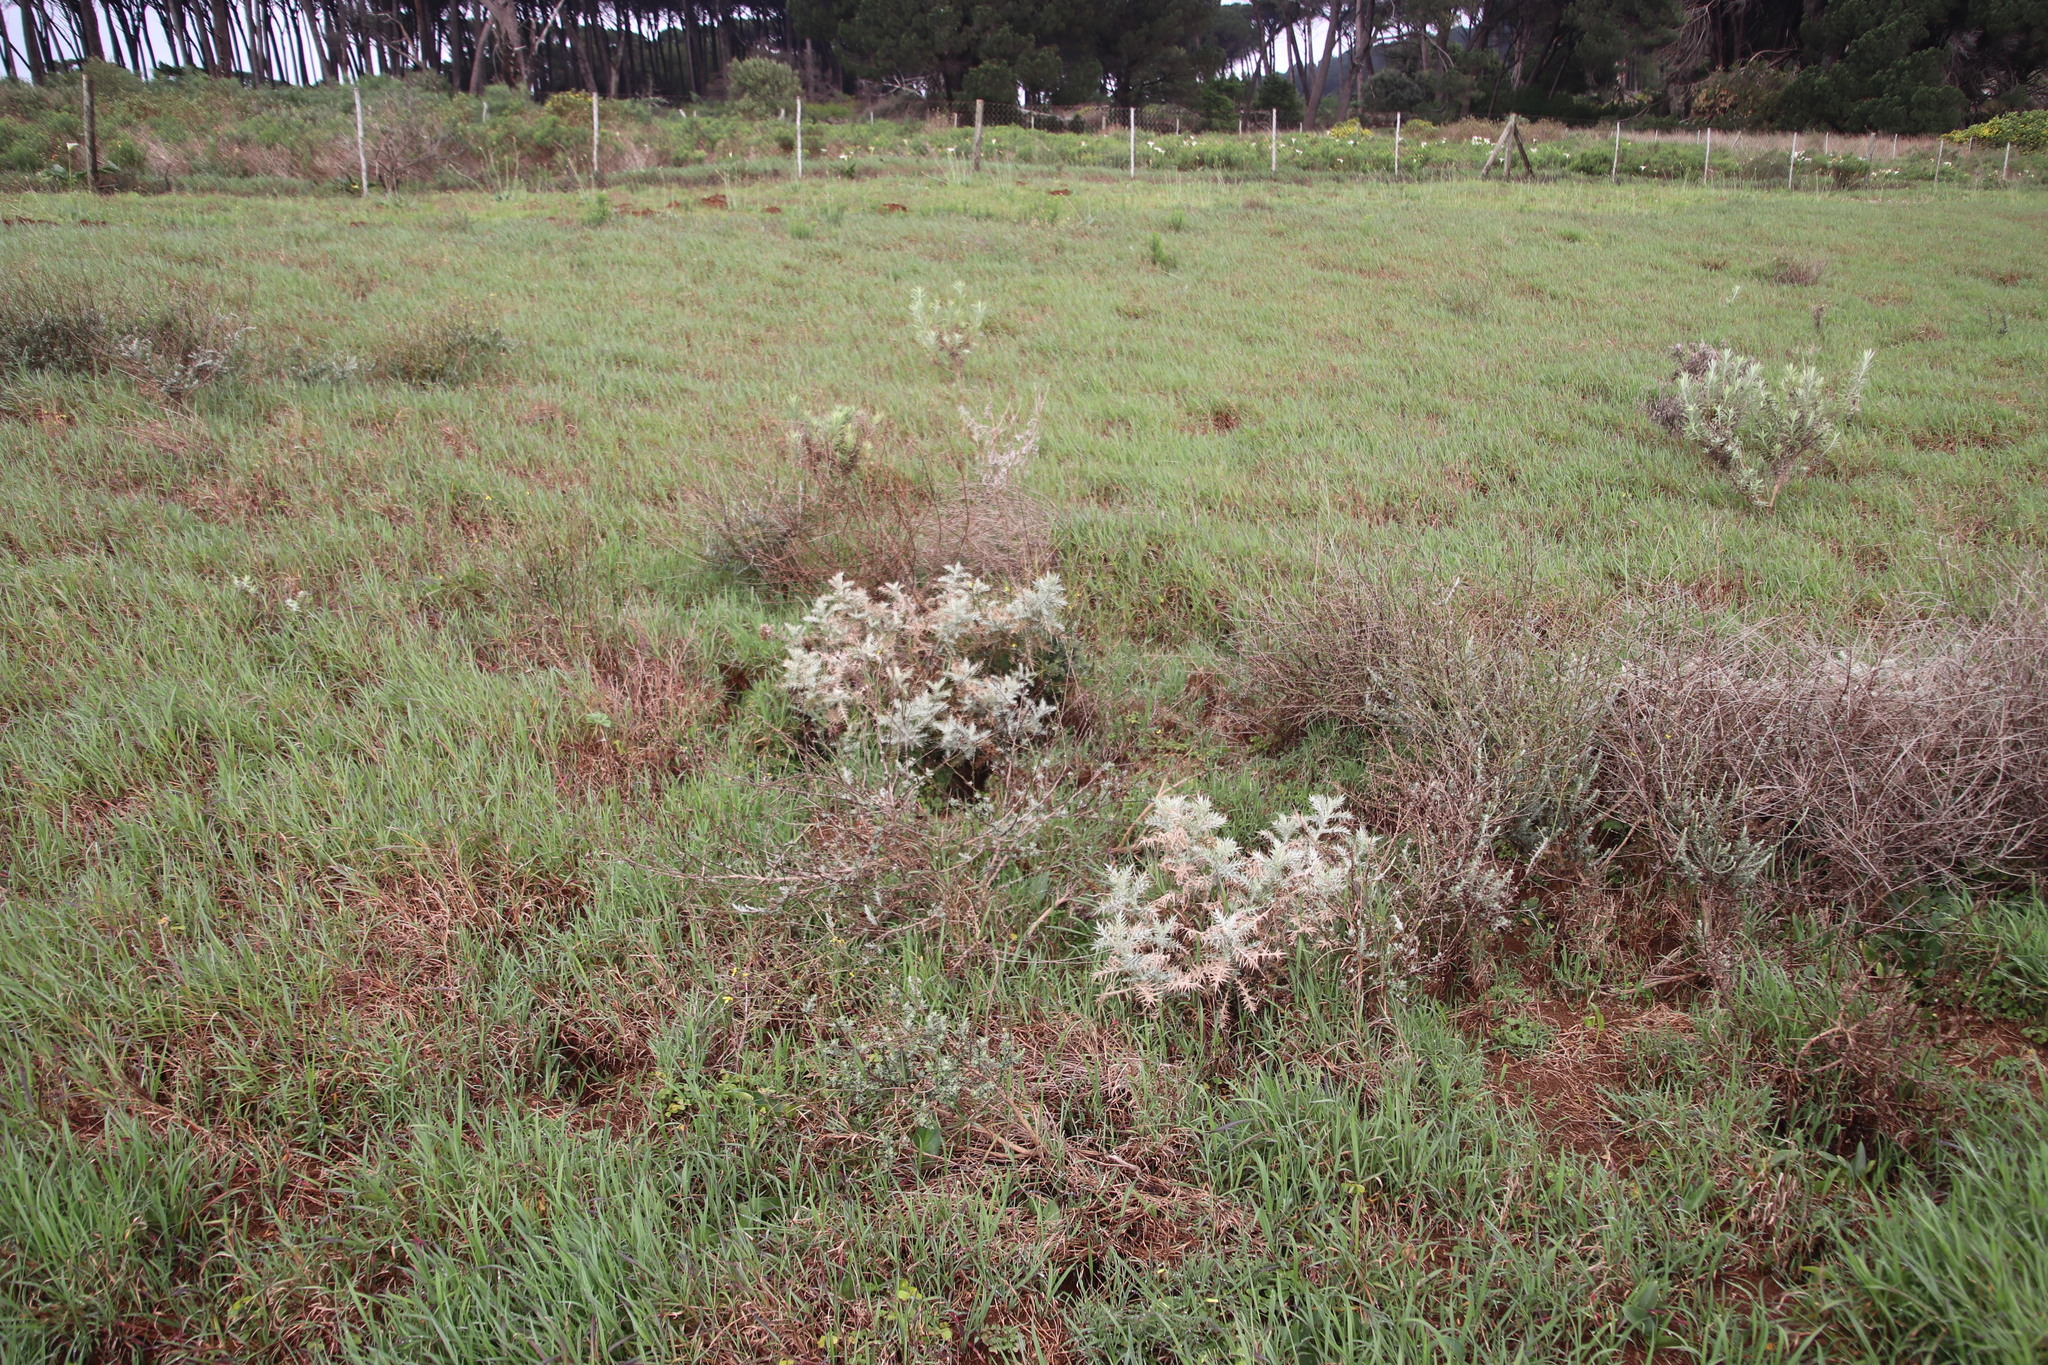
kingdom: Plantae
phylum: Tracheophyta
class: Magnoliopsida
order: Asterales
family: Asteraceae
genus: Berkheya
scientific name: Berkheya rigida
